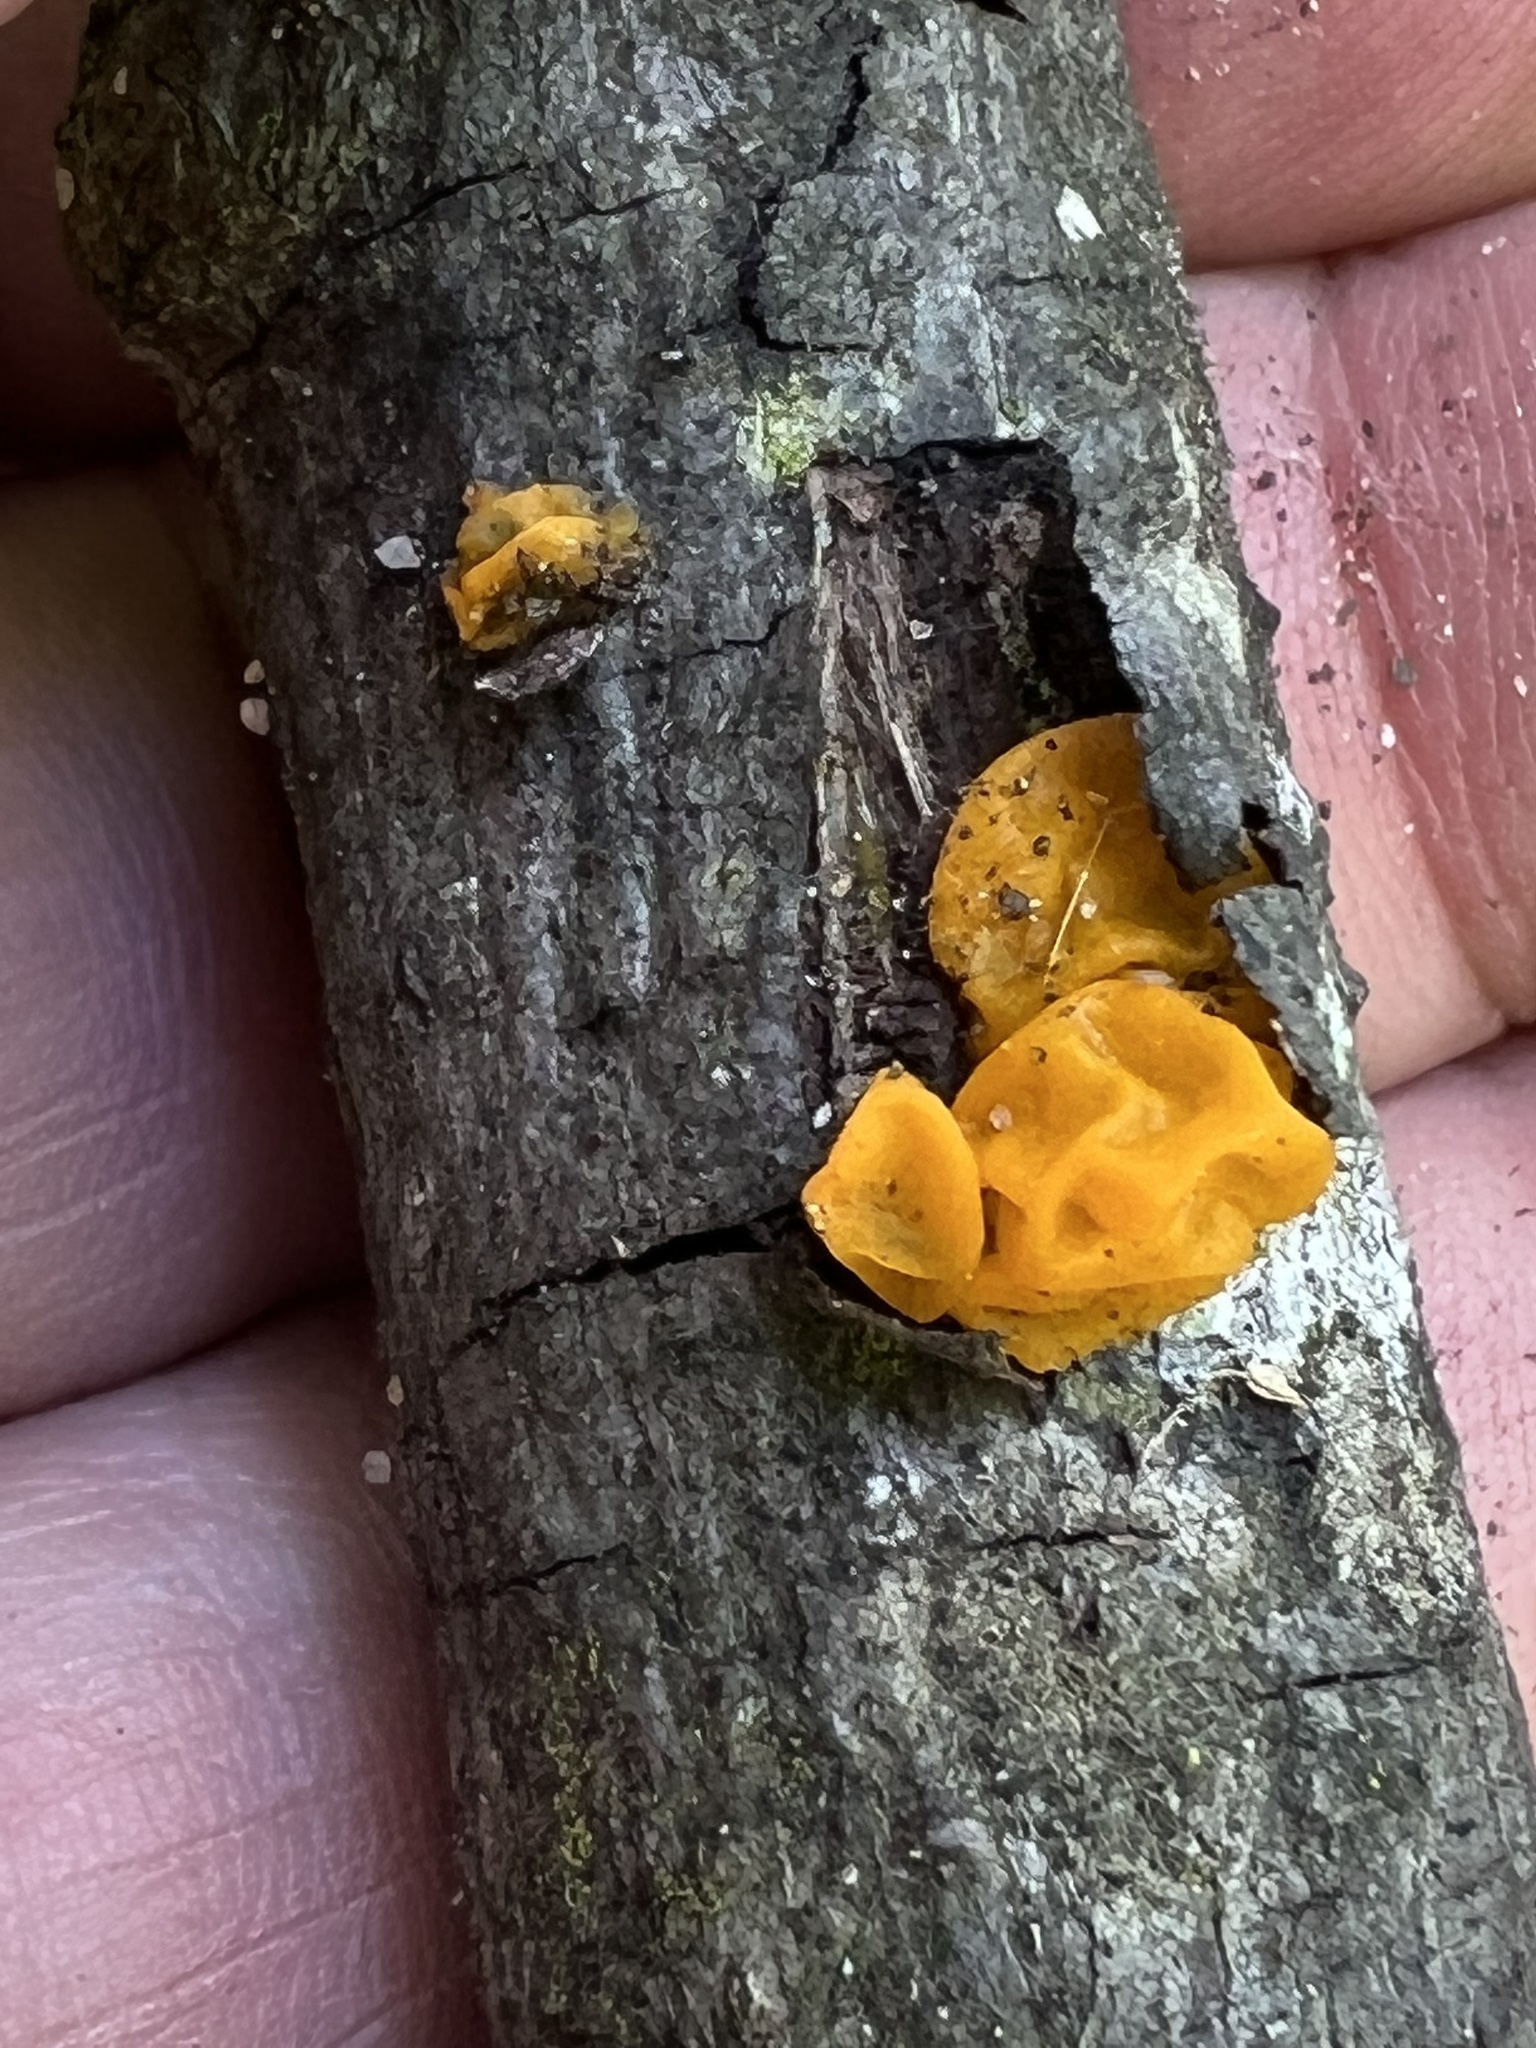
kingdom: Fungi
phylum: Basidiomycota
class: Tremellomycetes
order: Tremellales
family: Tremellaceae
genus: Tremella
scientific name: Tremella mesenterica
